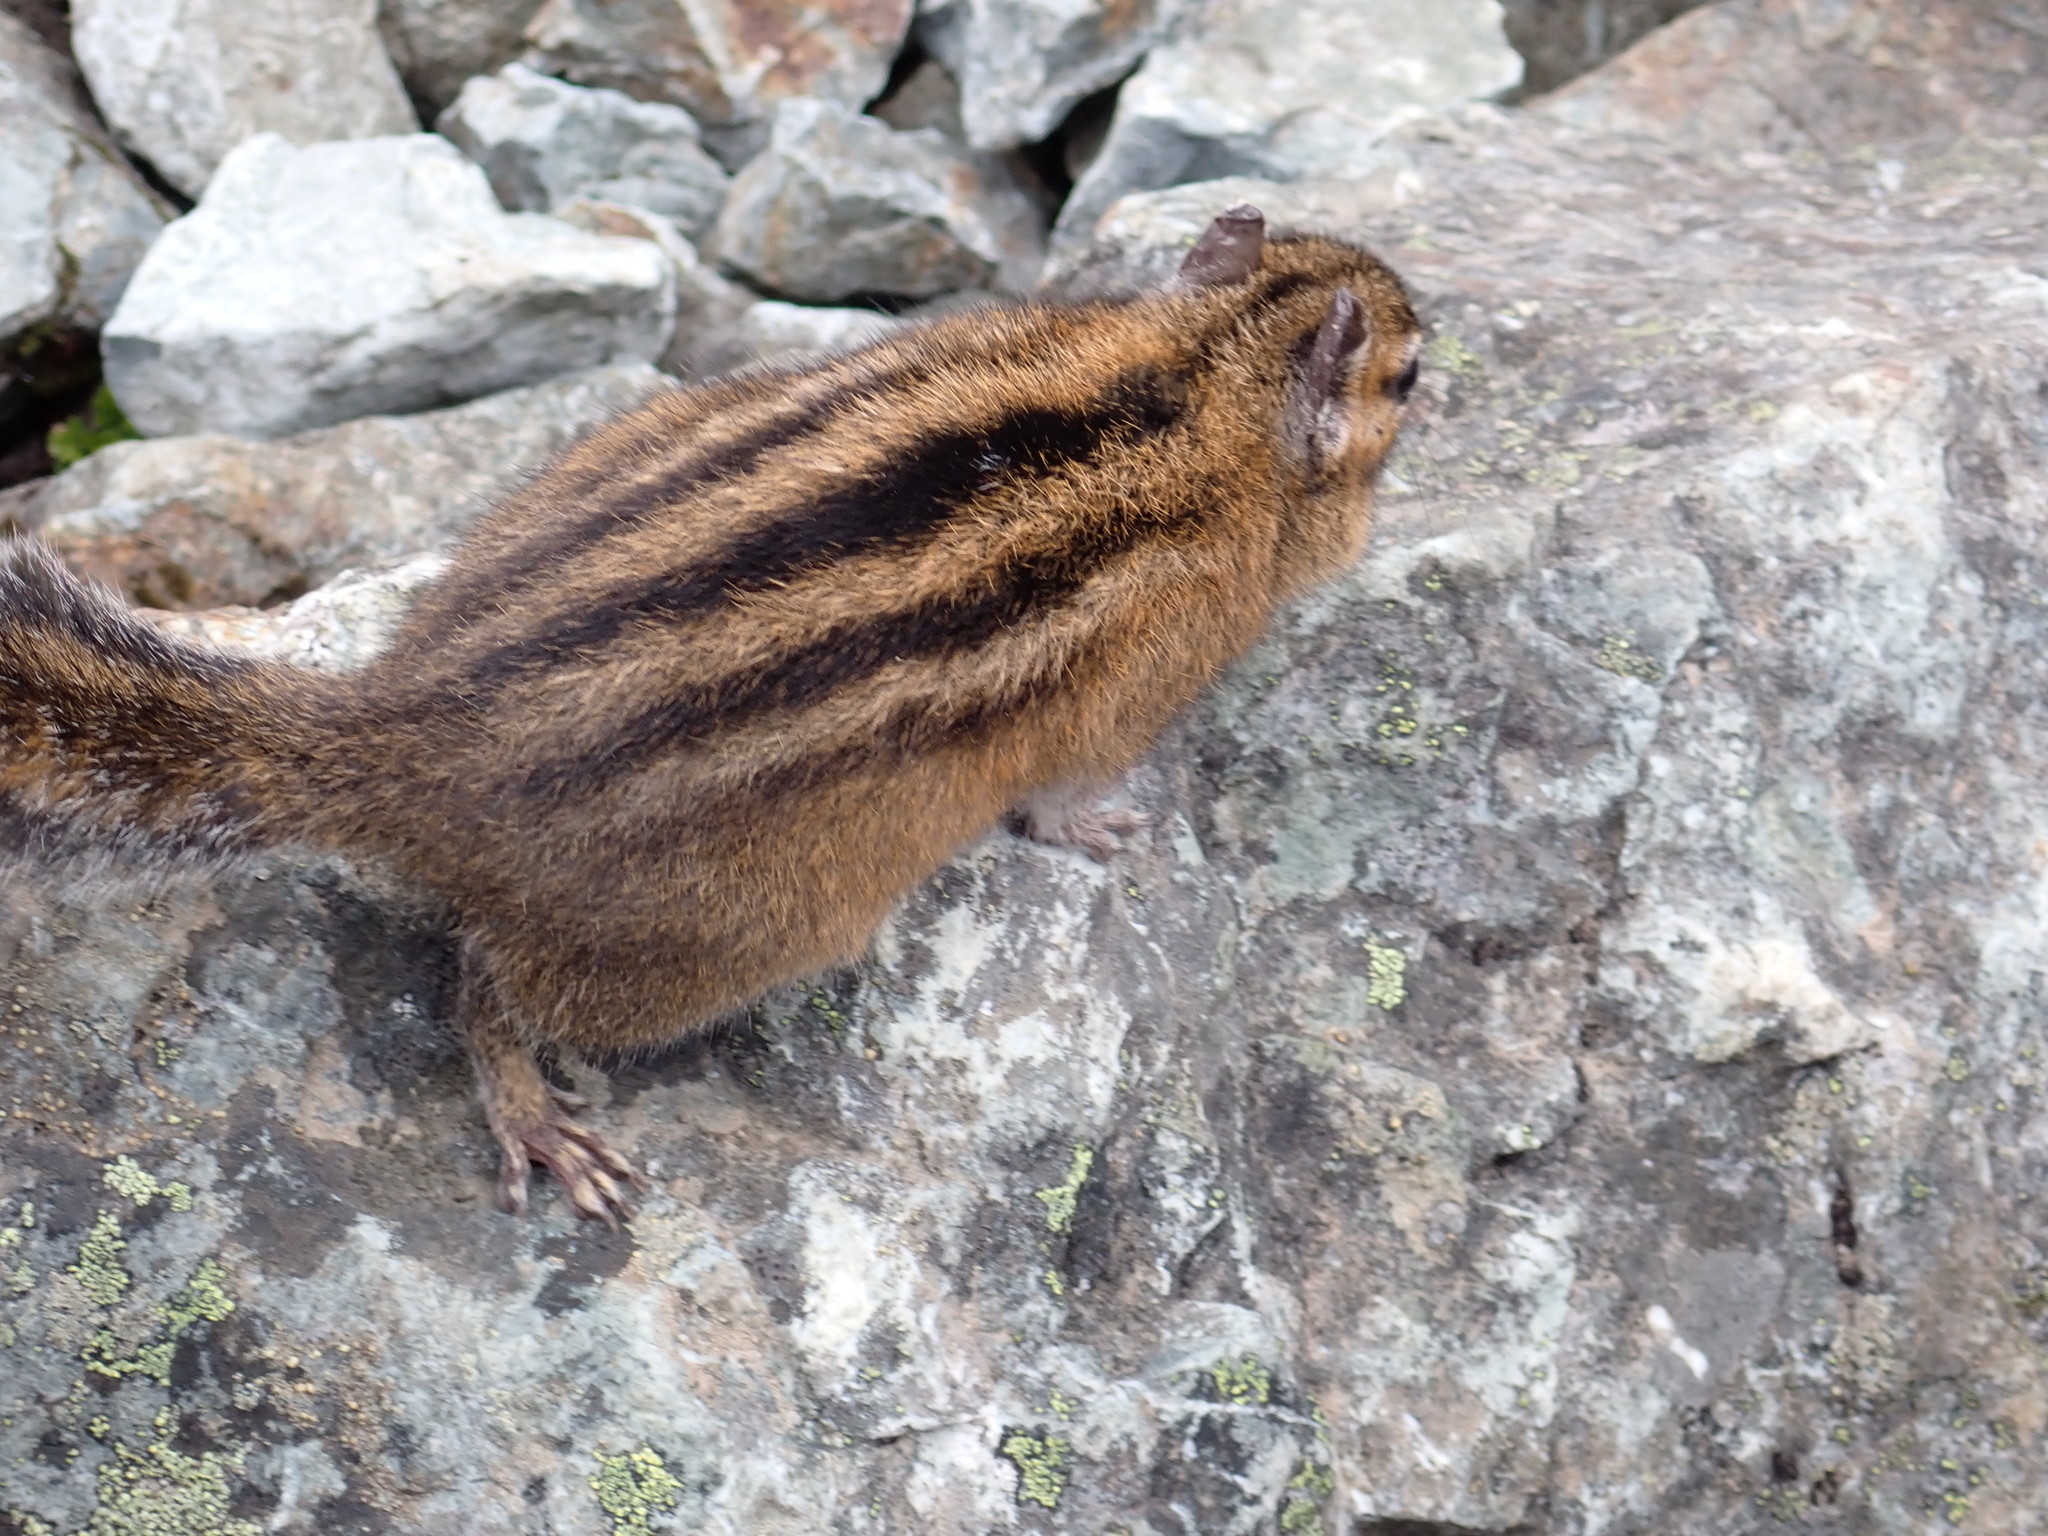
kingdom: Animalia
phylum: Chordata
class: Mammalia
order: Rodentia
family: Sciuridae
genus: Tamias
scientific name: Tamias townsendii
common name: Townsend's chipmunk
